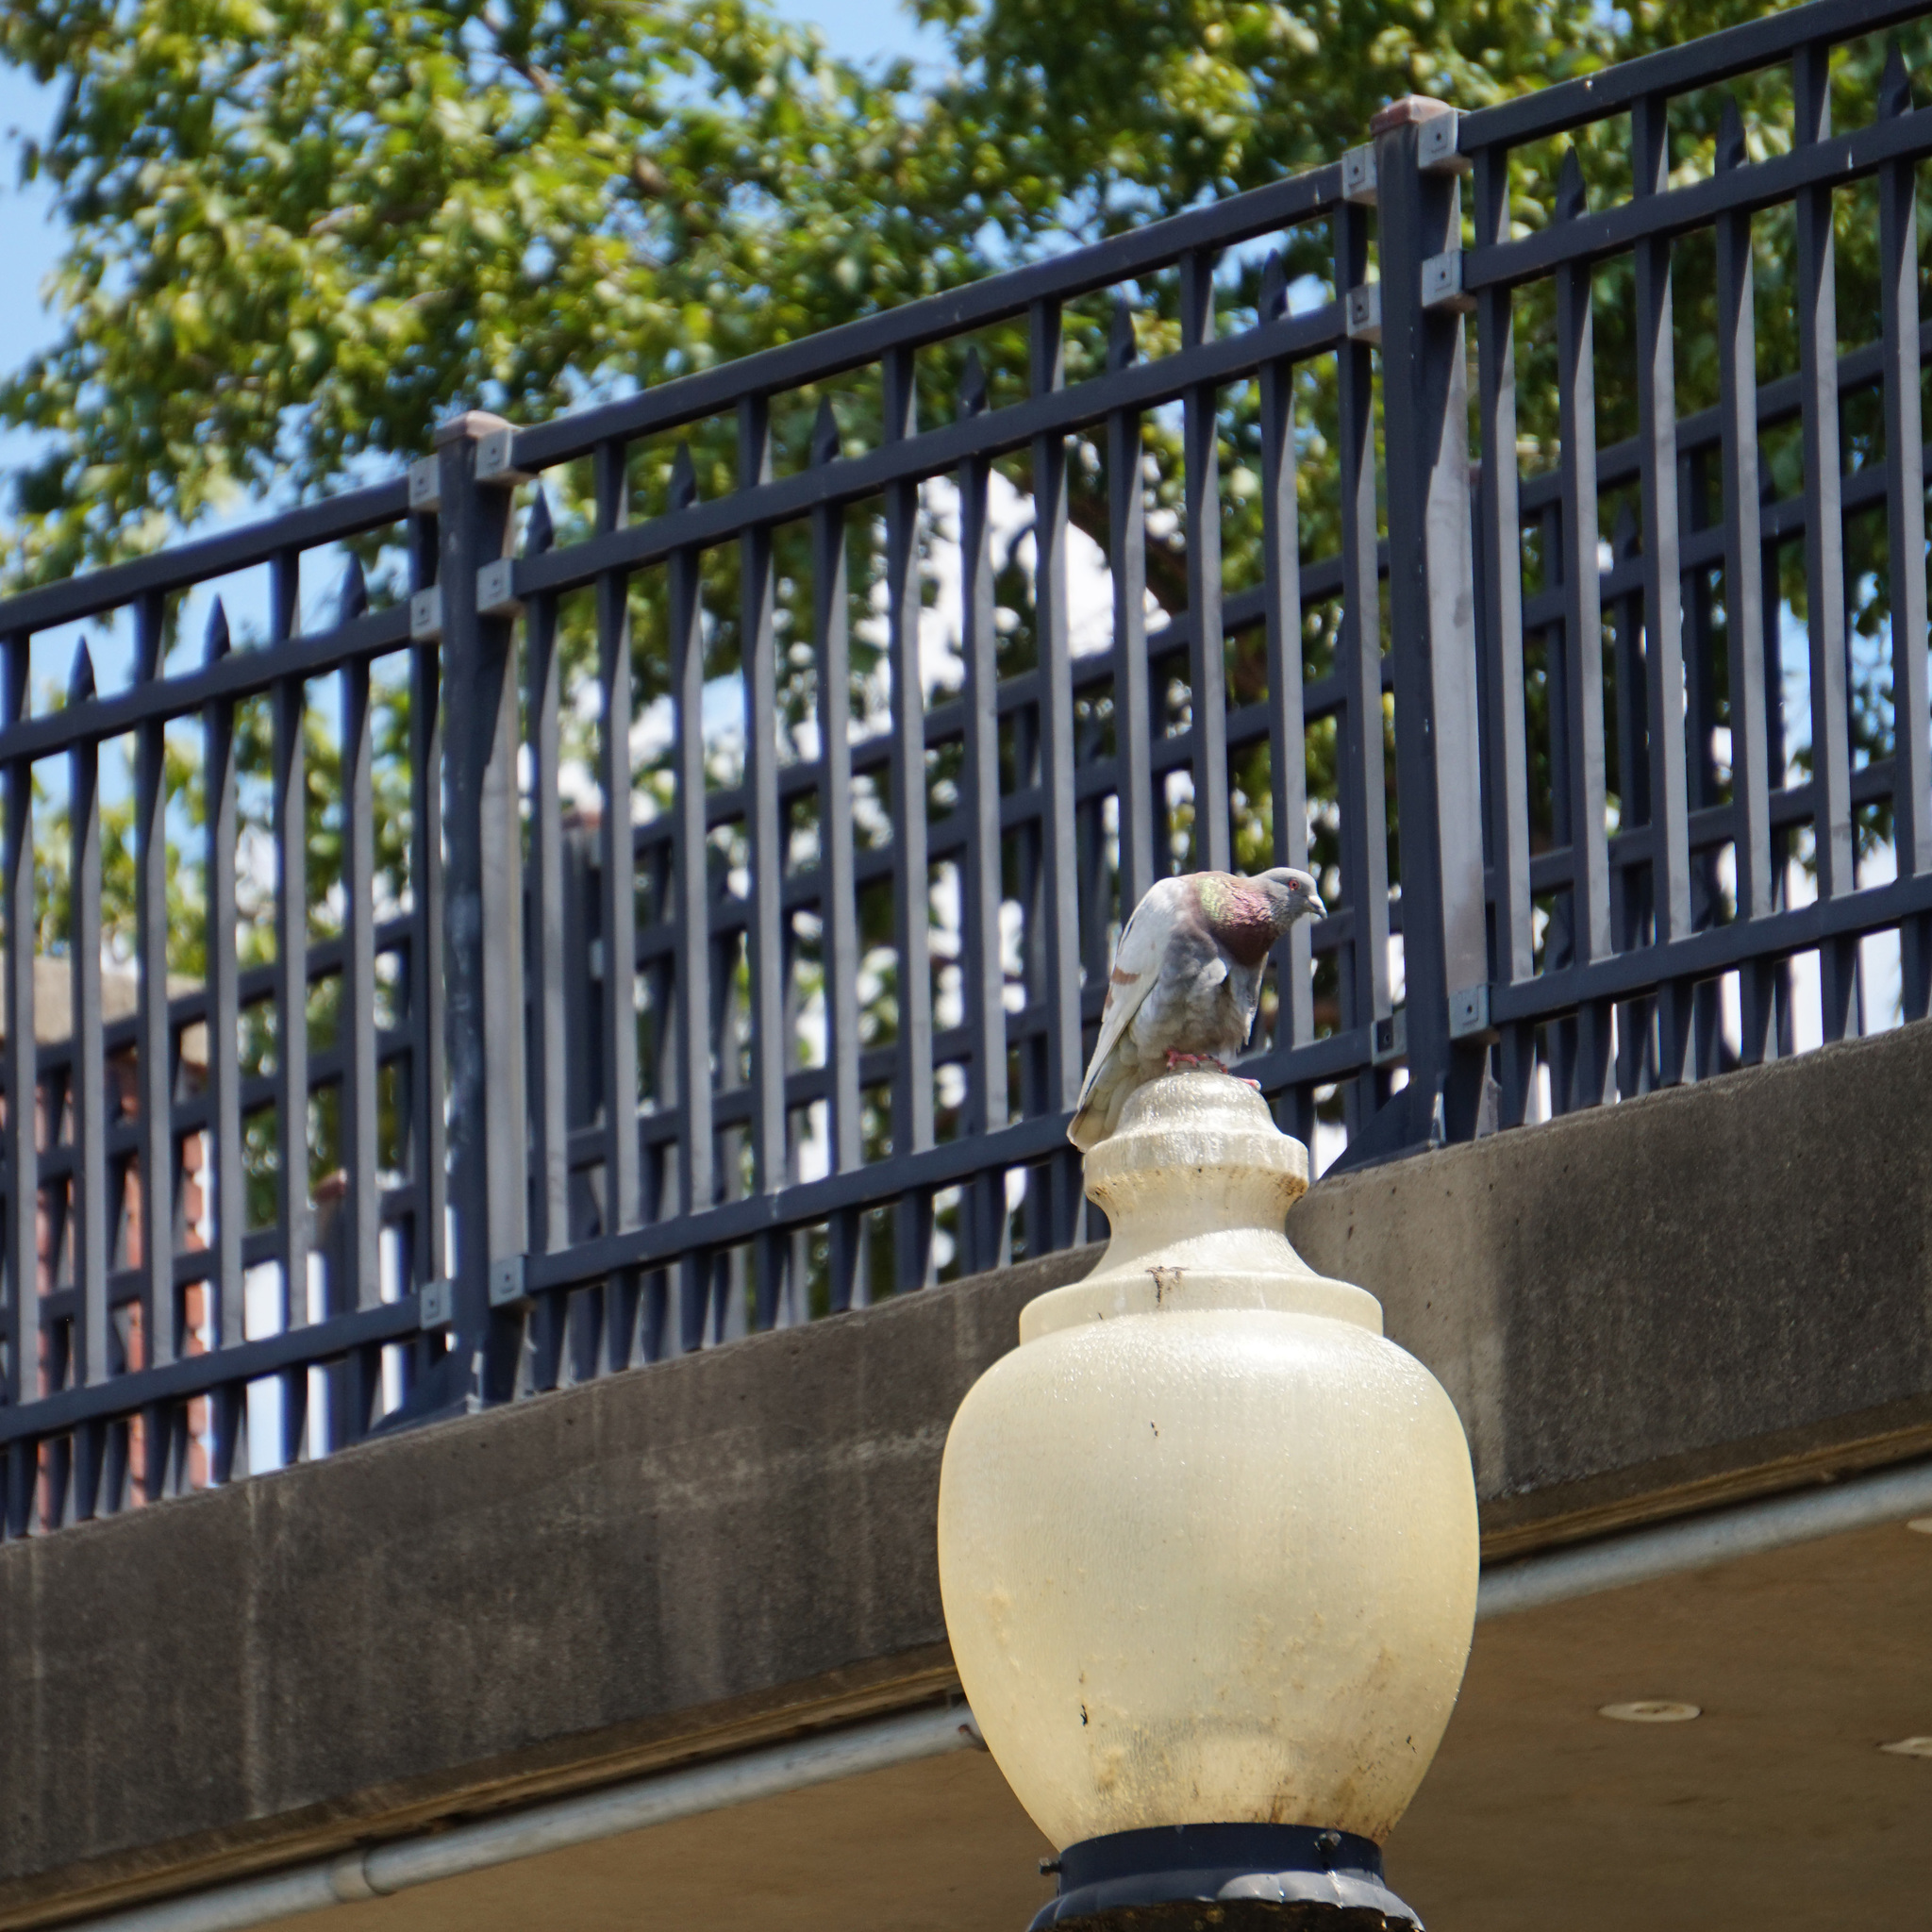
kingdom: Animalia
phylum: Chordata
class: Aves
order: Columbiformes
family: Columbidae
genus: Columba
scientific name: Columba livia
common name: Rock pigeon
